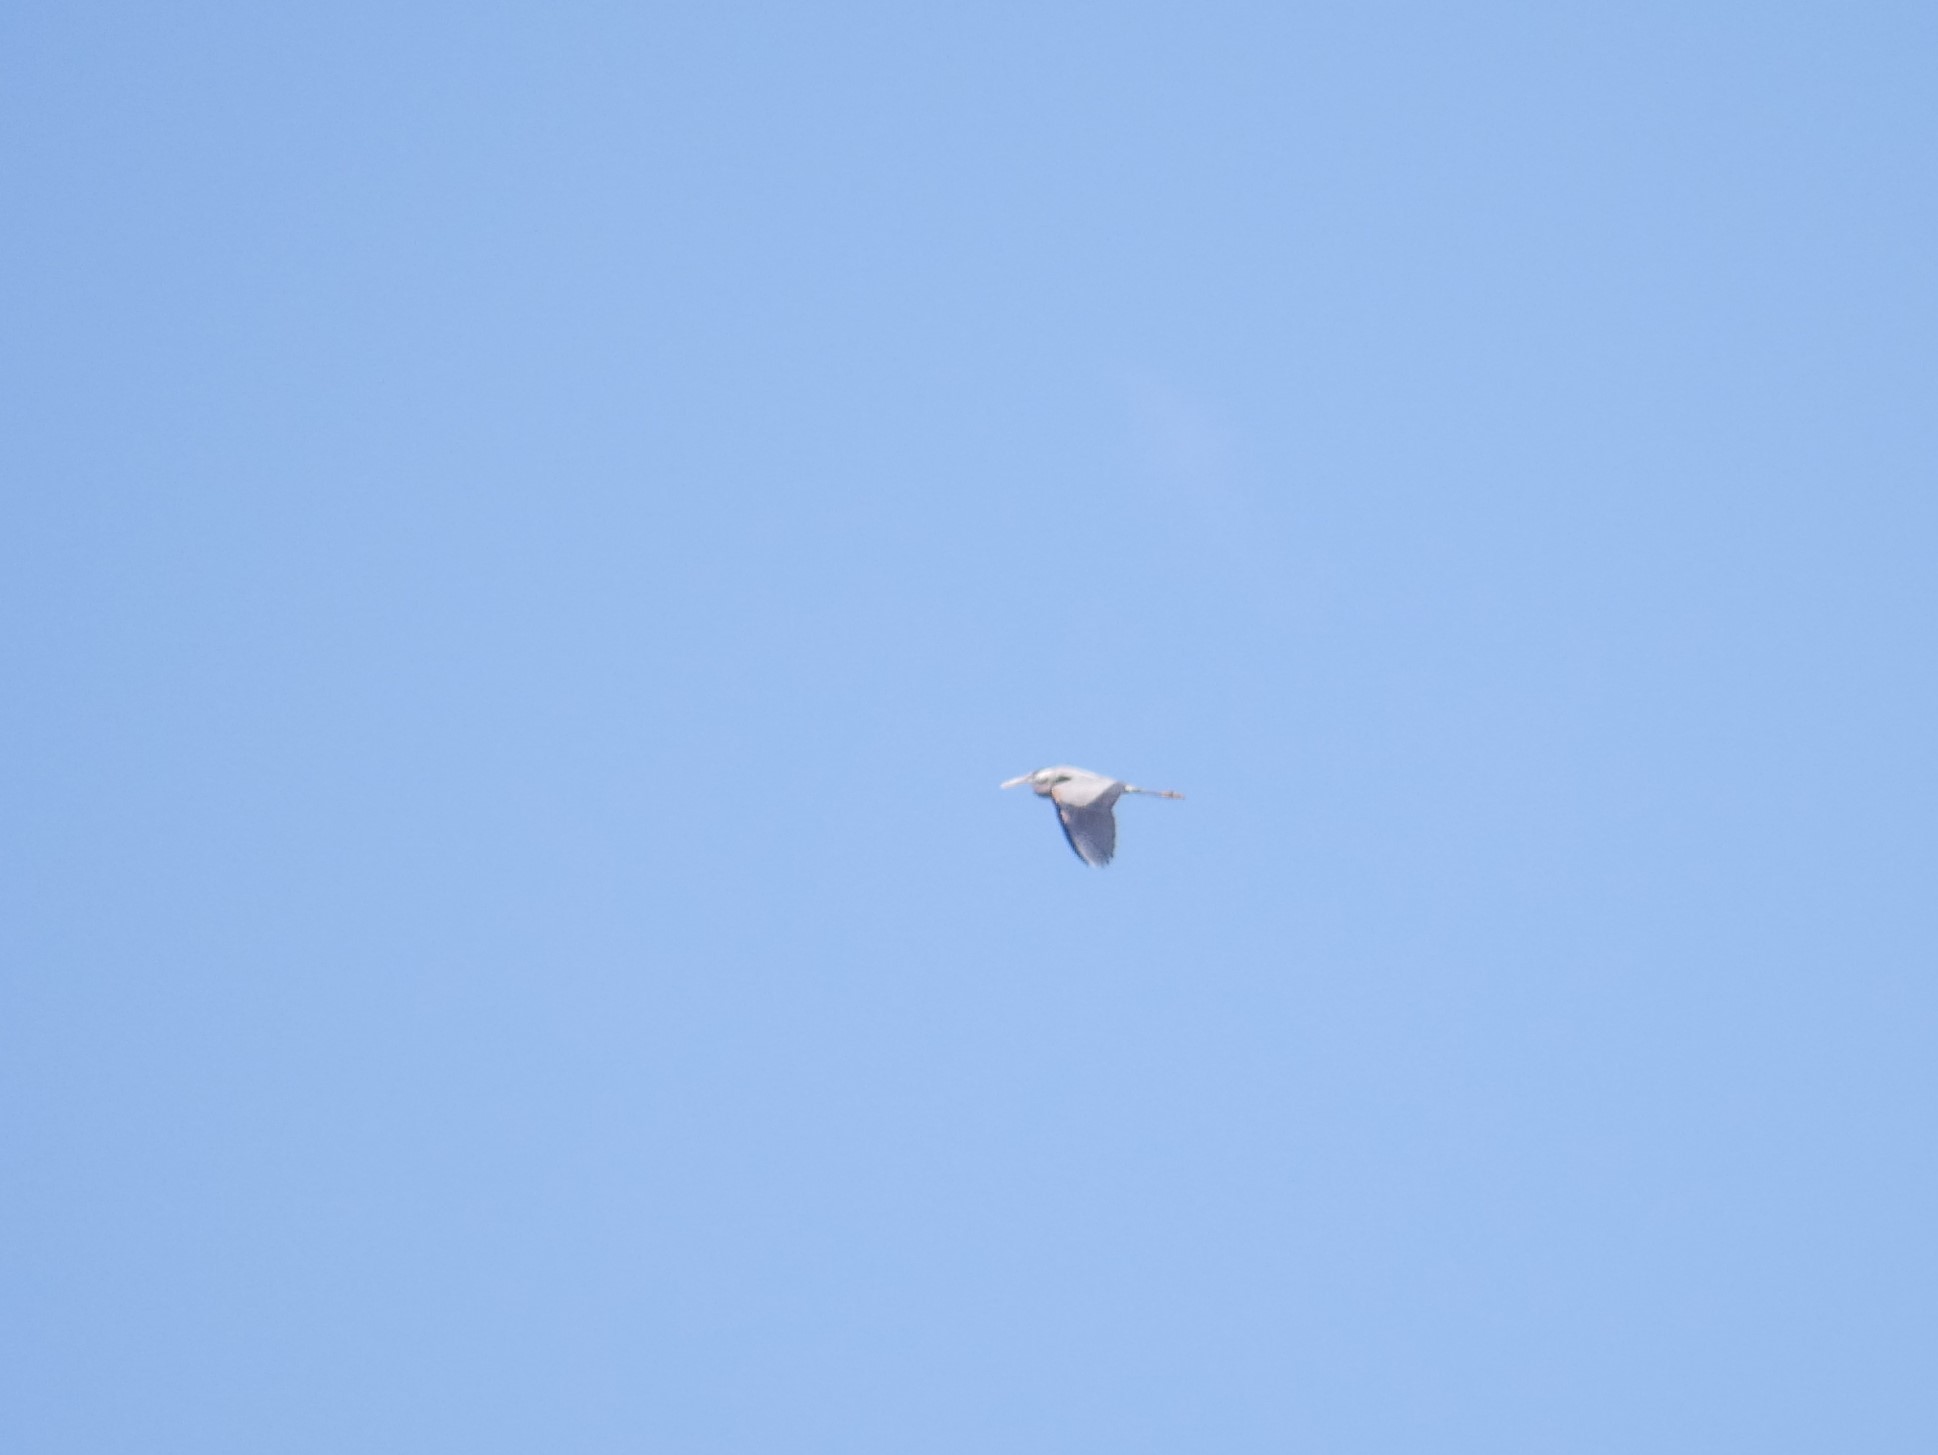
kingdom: Animalia
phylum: Chordata
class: Aves
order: Pelecaniformes
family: Ardeidae
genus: Ardea
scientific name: Ardea herodias
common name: Great blue heron
